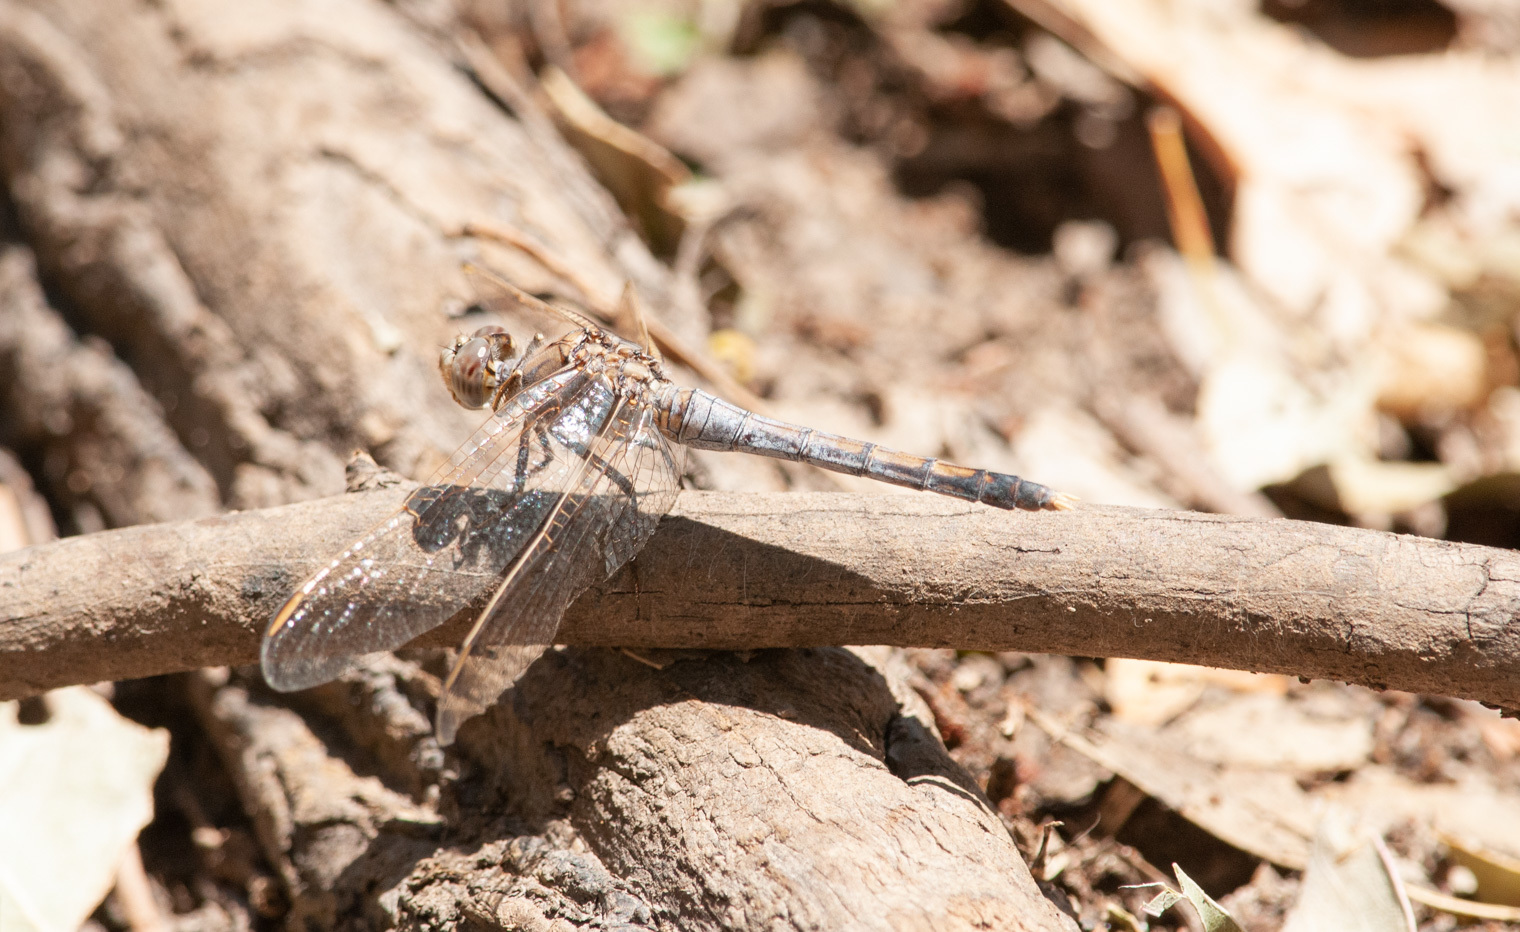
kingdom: Animalia
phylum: Arthropoda
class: Insecta
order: Odonata
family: Libellulidae
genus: Orthetrum
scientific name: Orthetrum caledonicum
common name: Blue skimmer
